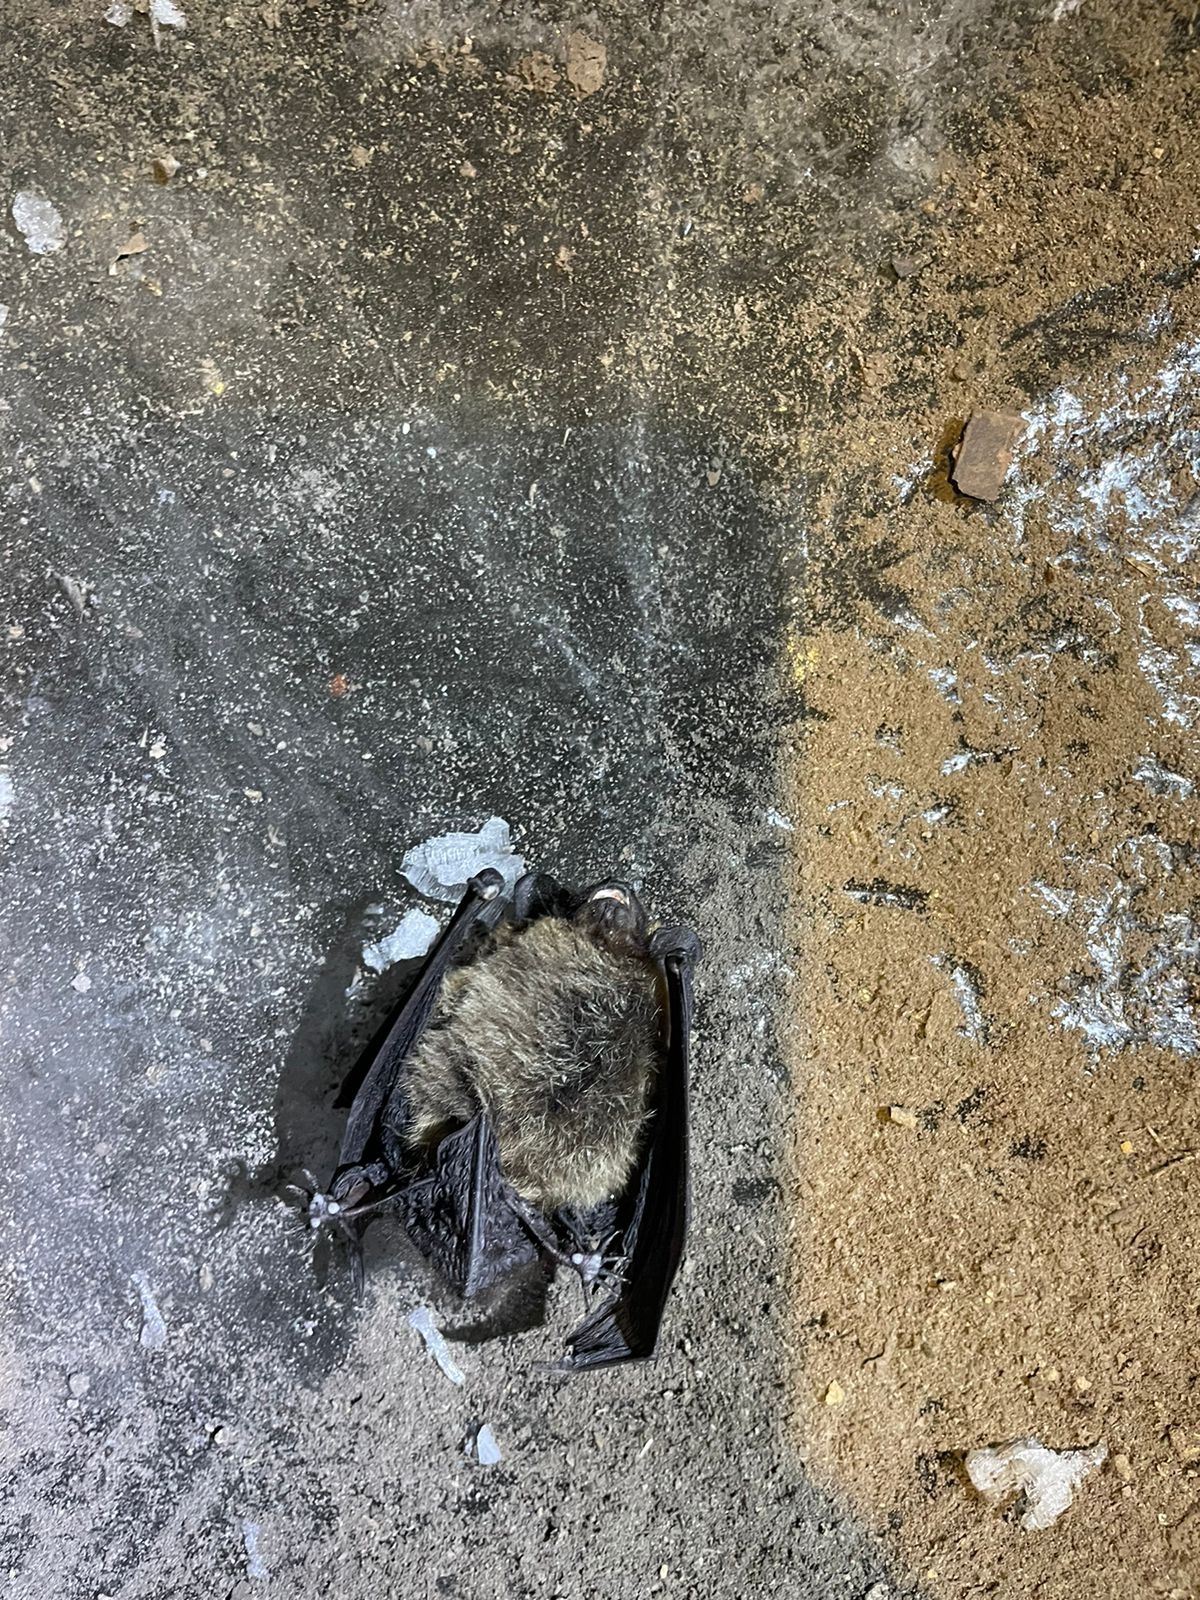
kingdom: Animalia
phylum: Chordata
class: Mammalia
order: Chiroptera
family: Vespertilionidae
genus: Eptesicus
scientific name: Eptesicus nilssonii
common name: Northern bat
